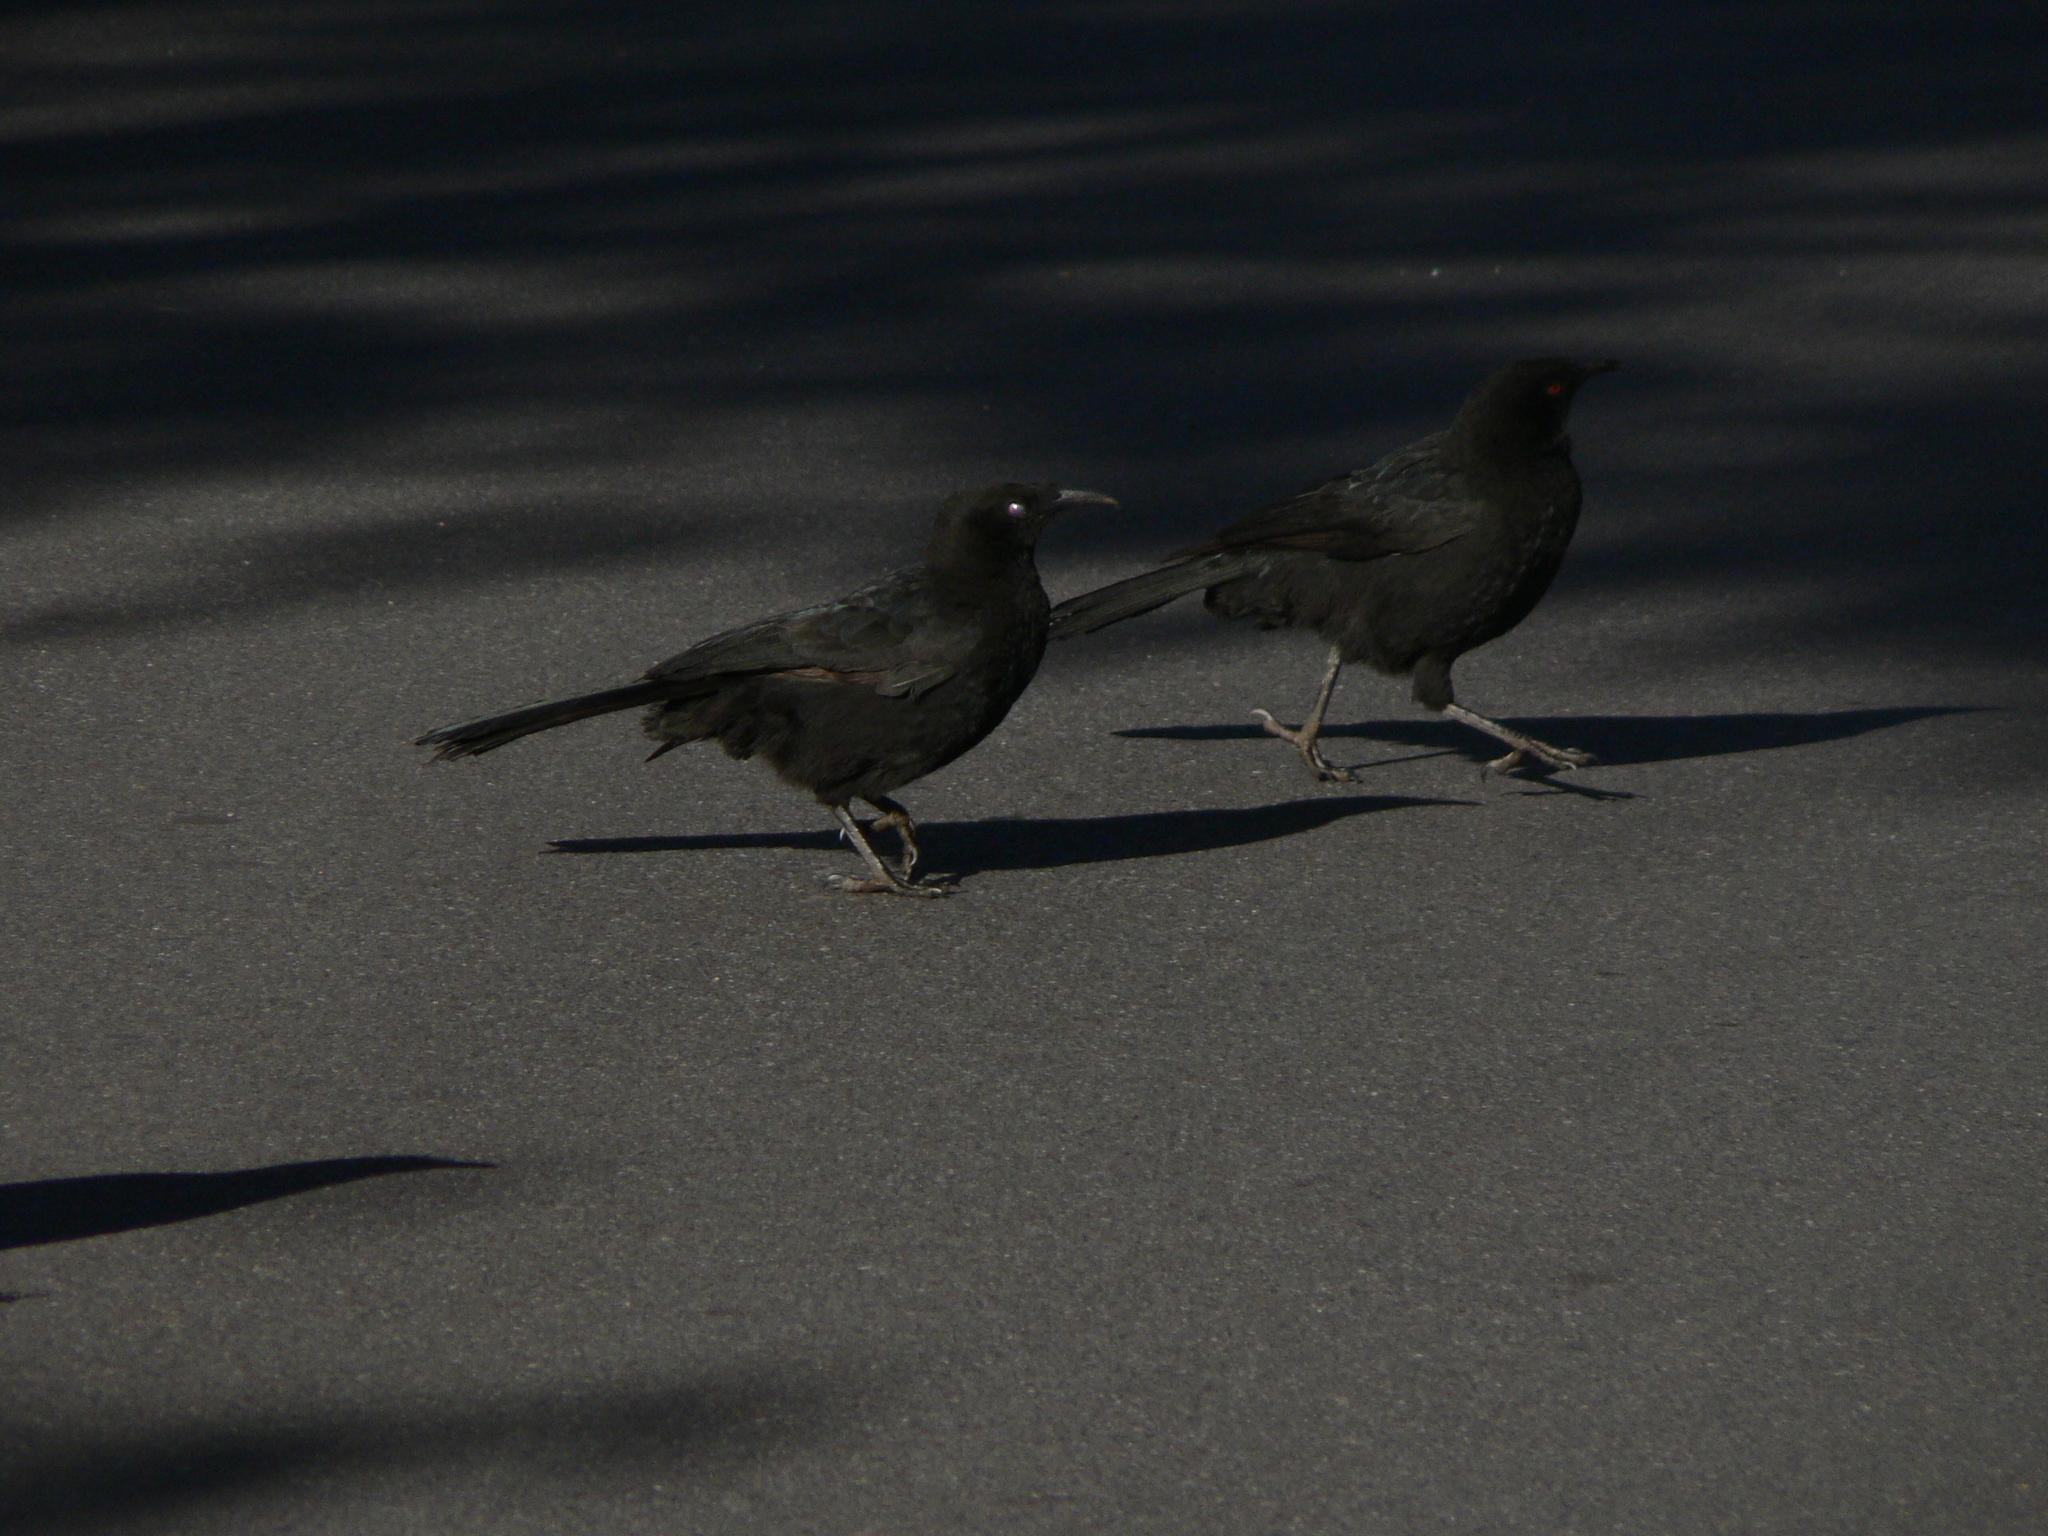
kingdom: Animalia
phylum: Chordata
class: Aves
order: Passeriformes
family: Corcoracidae
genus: Corcorax
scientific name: Corcorax melanoramphos
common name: White-winged chough
